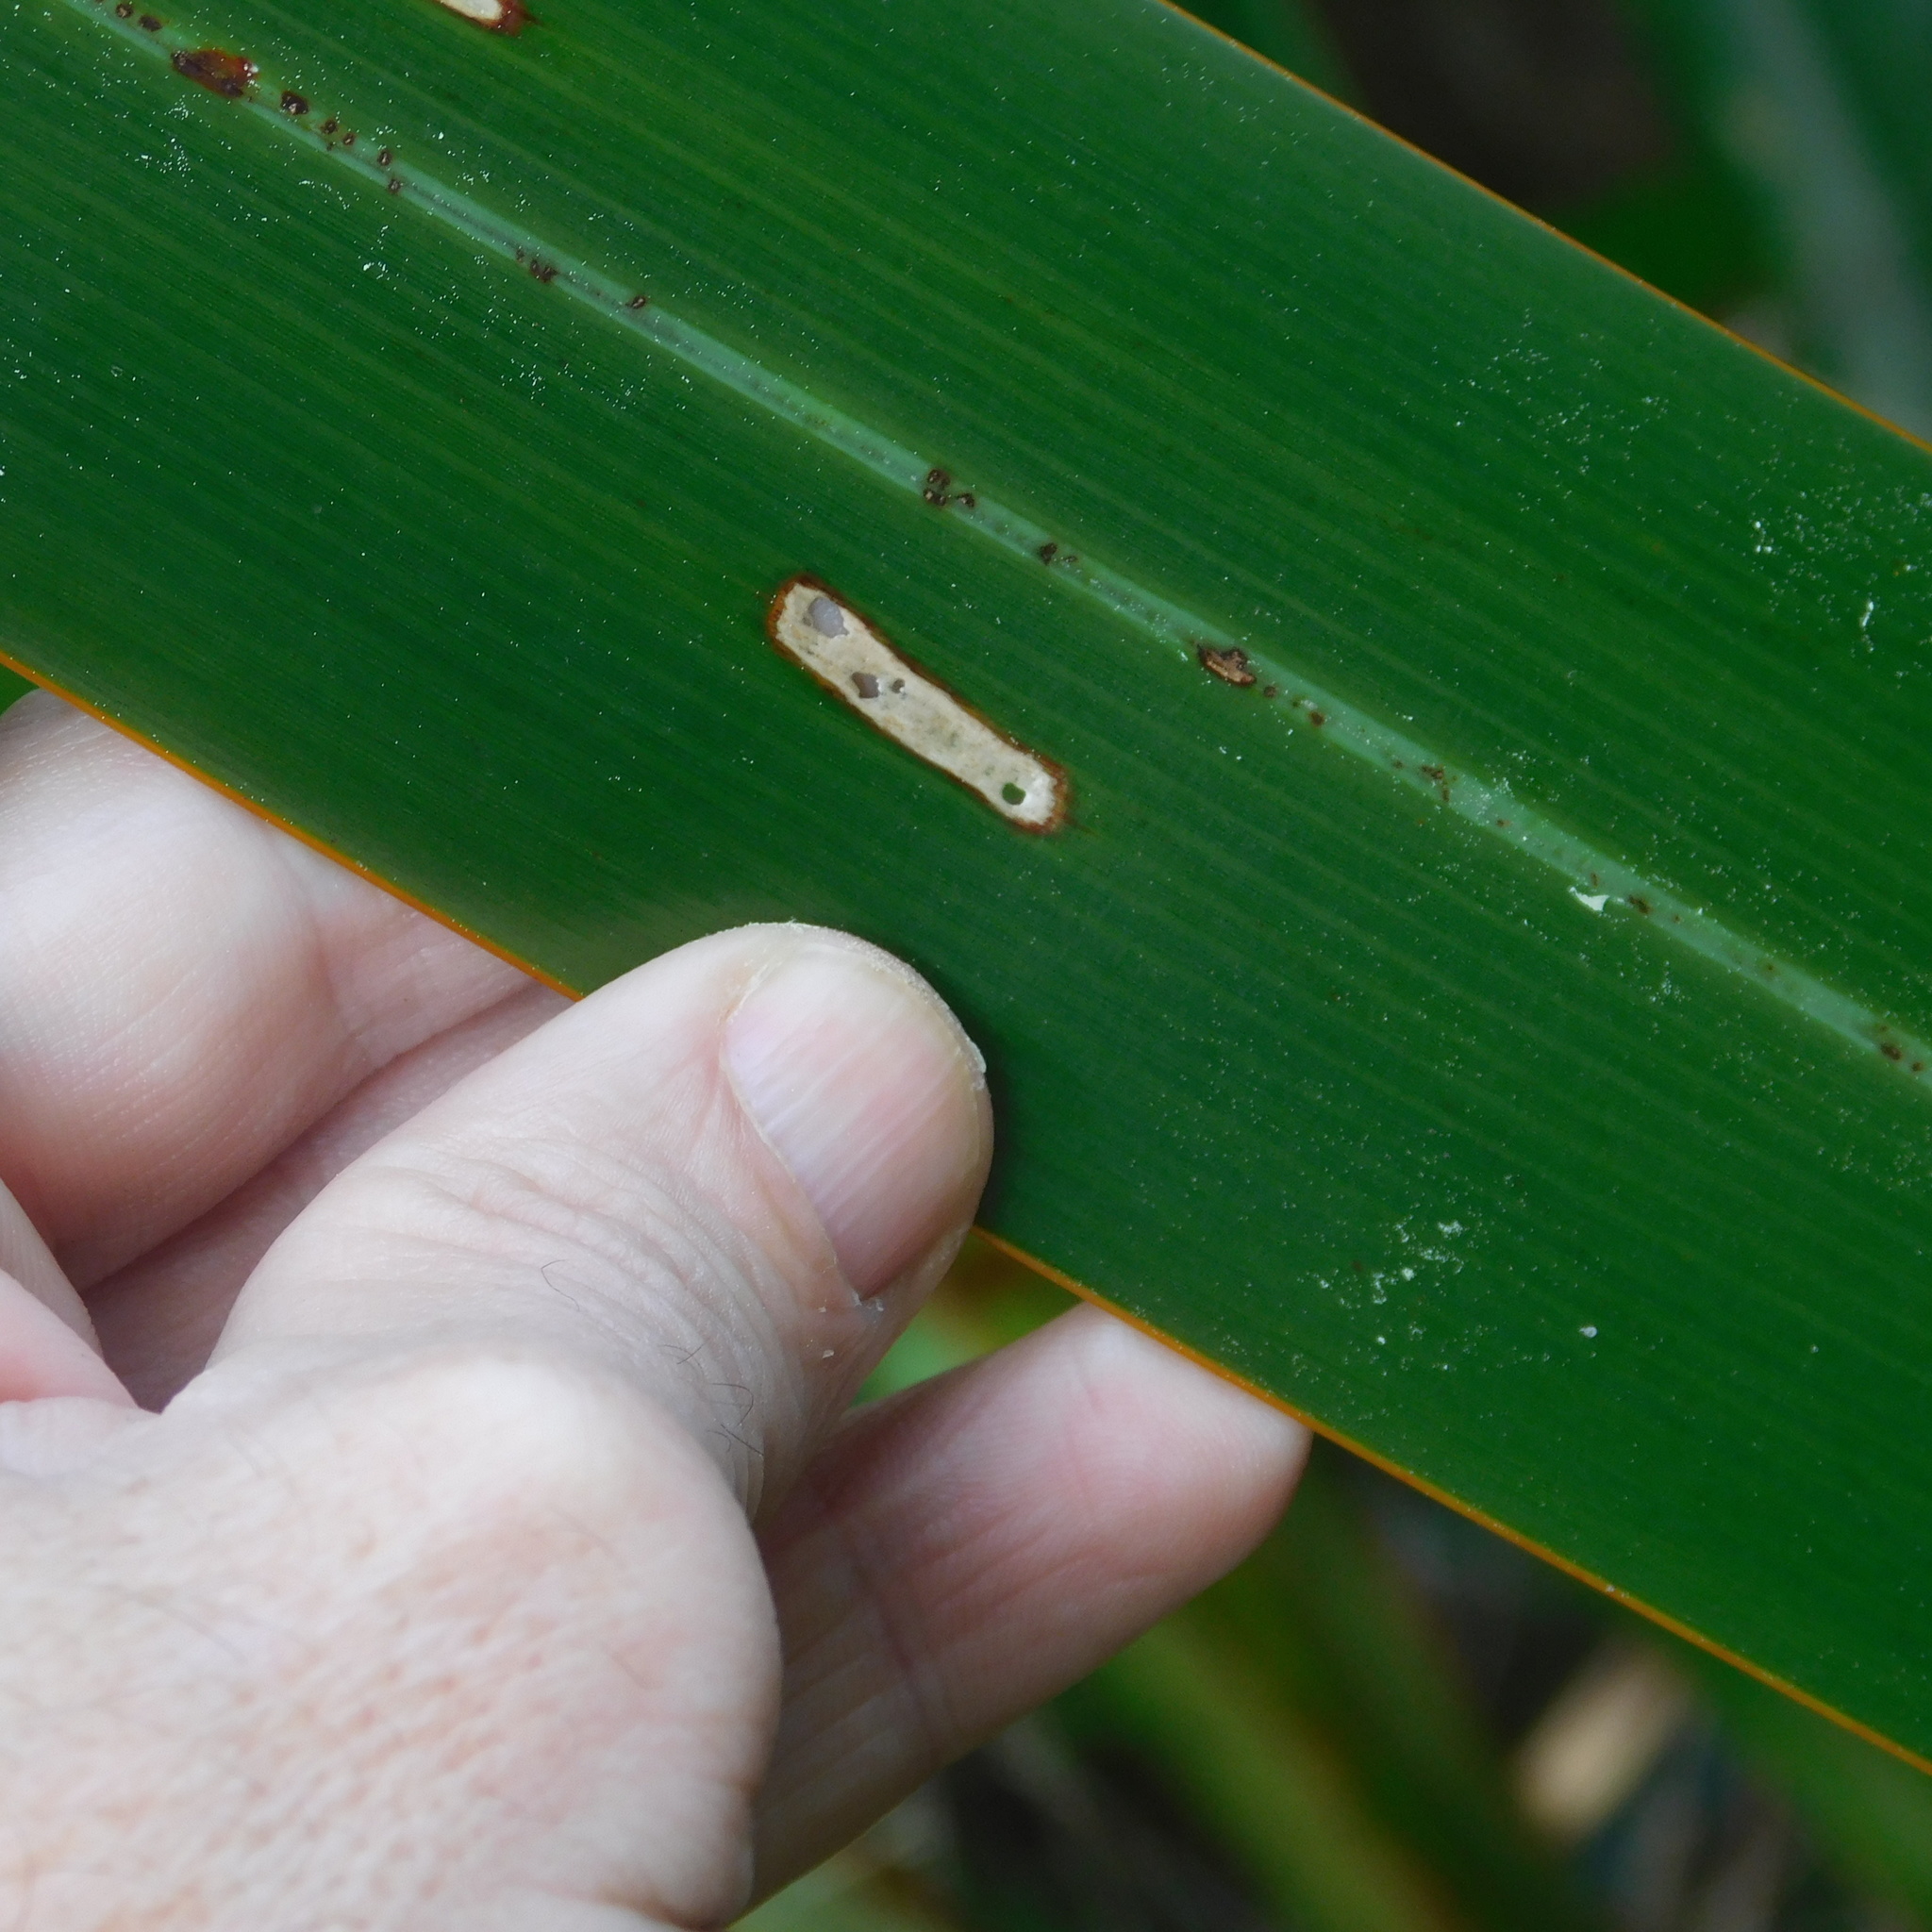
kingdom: Animalia
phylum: Arthropoda
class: Insecta
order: Lepidoptera
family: Geometridae
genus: Orthoclydon
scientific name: Orthoclydon praefectata
